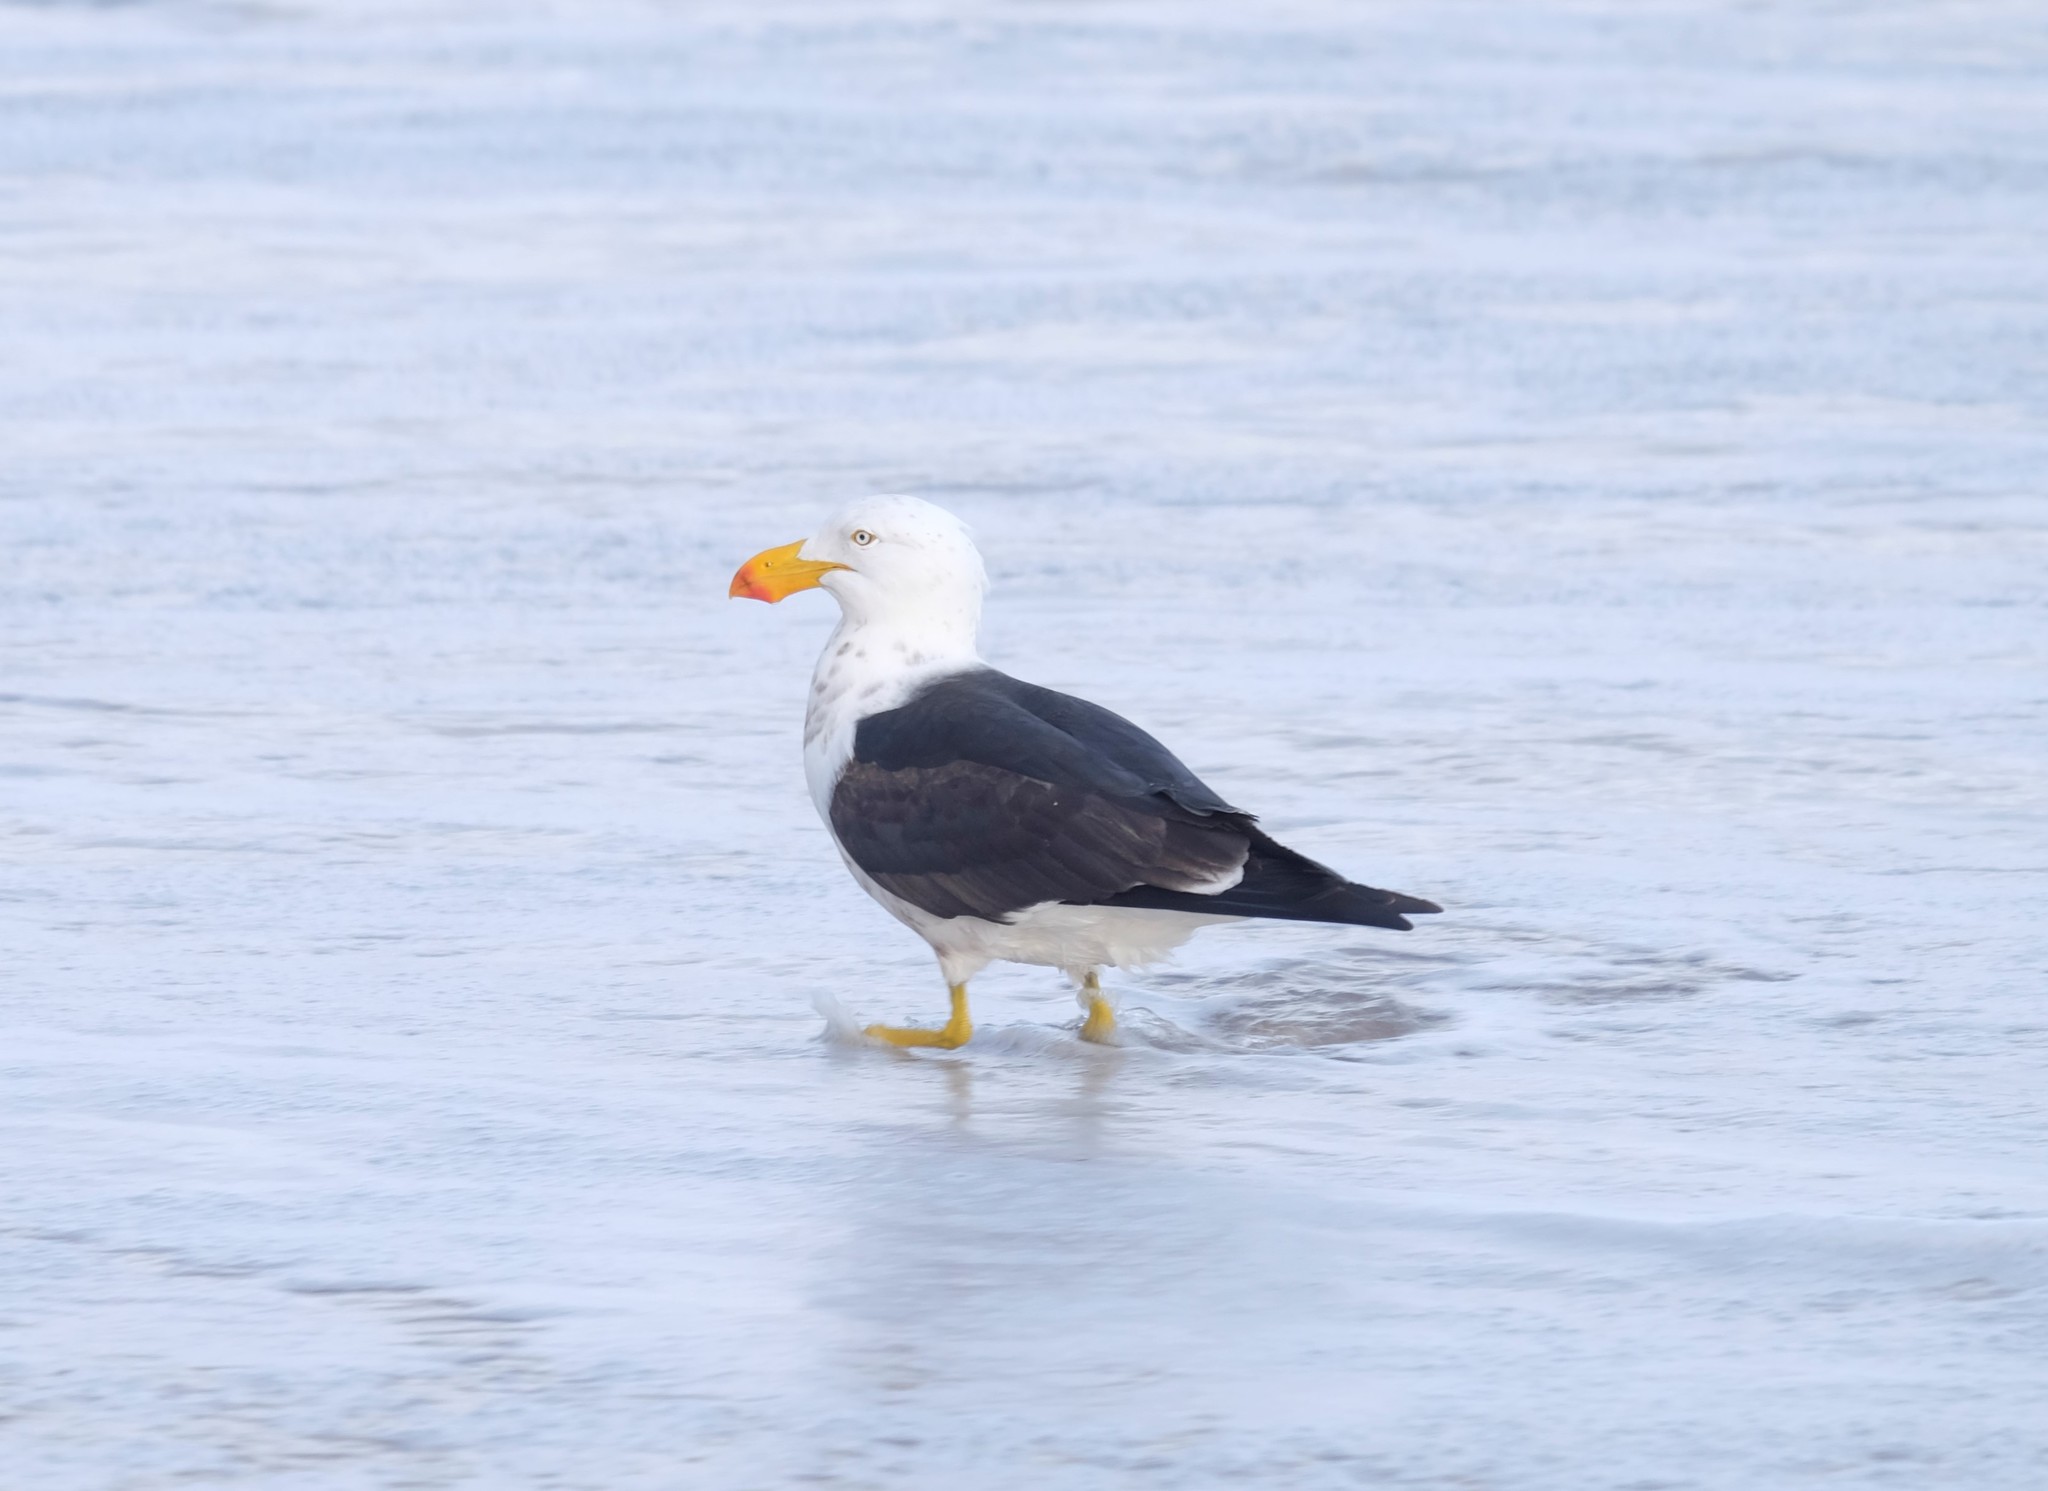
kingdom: Animalia
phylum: Chordata
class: Aves
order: Charadriiformes
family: Laridae
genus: Larus
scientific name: Larus pacificus
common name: Pacific gull
